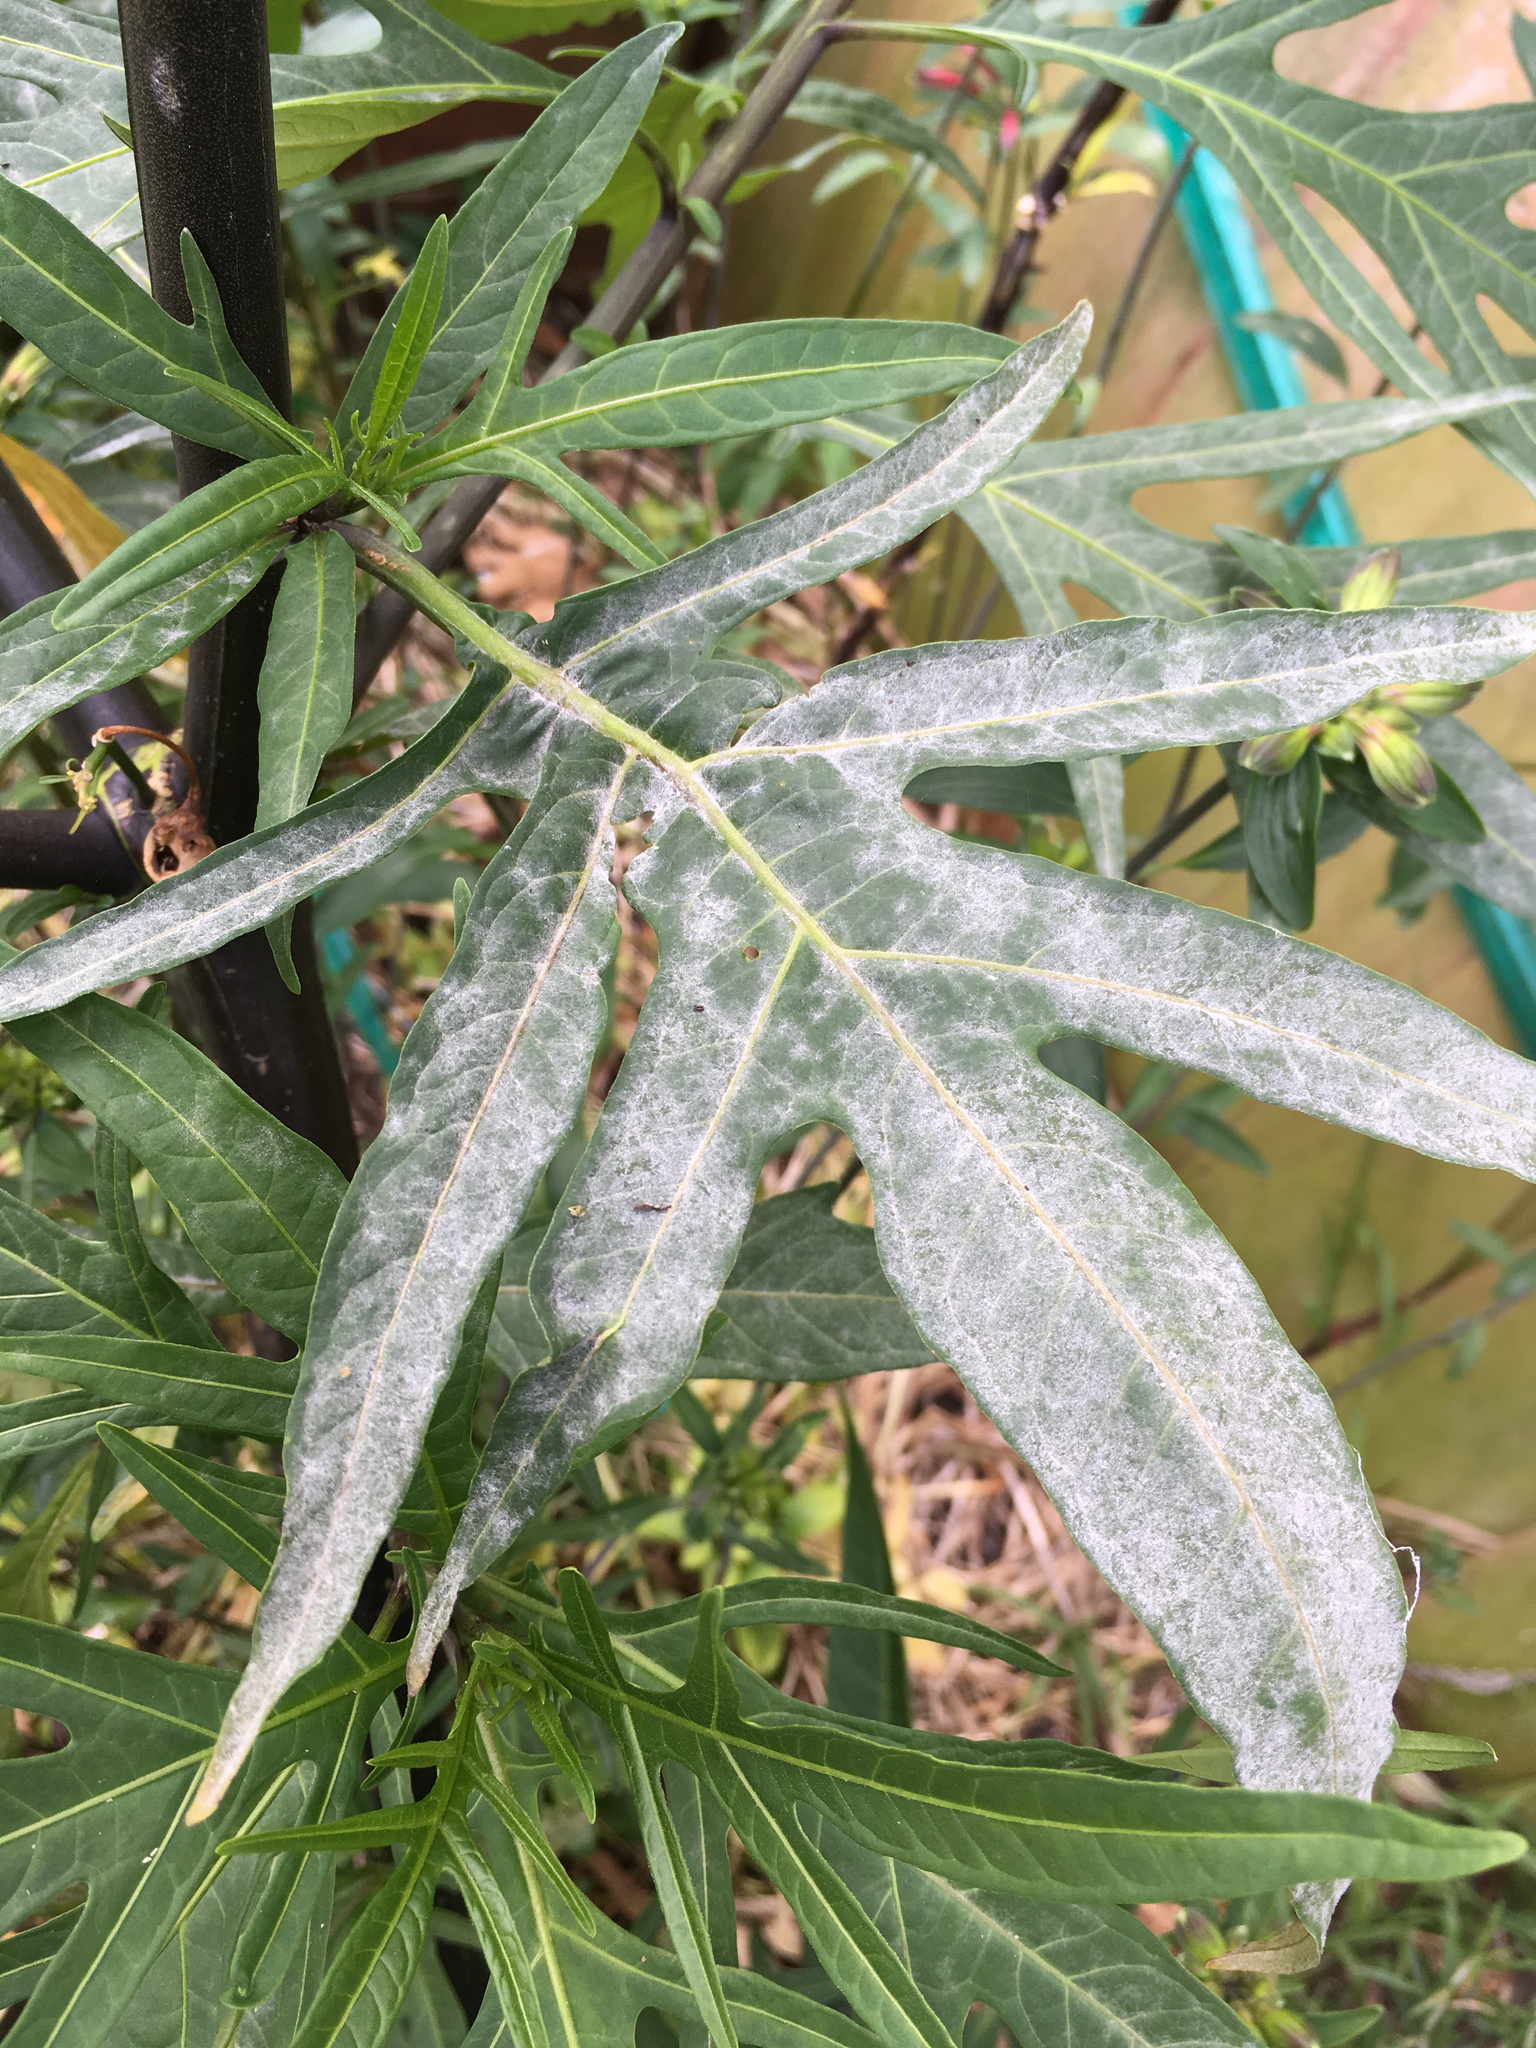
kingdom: Fungi
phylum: Ascomycota
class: Leotiomycetes
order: Helotiales
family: Erysiphaceae
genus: Golovinomyces
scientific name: Golovinomyces longipes
